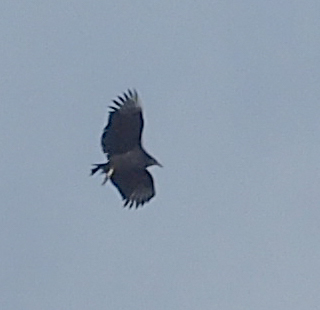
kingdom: Animalia
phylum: Chordata
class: Aves
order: Accipitriformes
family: Cathartidae
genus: Coragyps
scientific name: Coragyps atratus
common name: Black vulture
